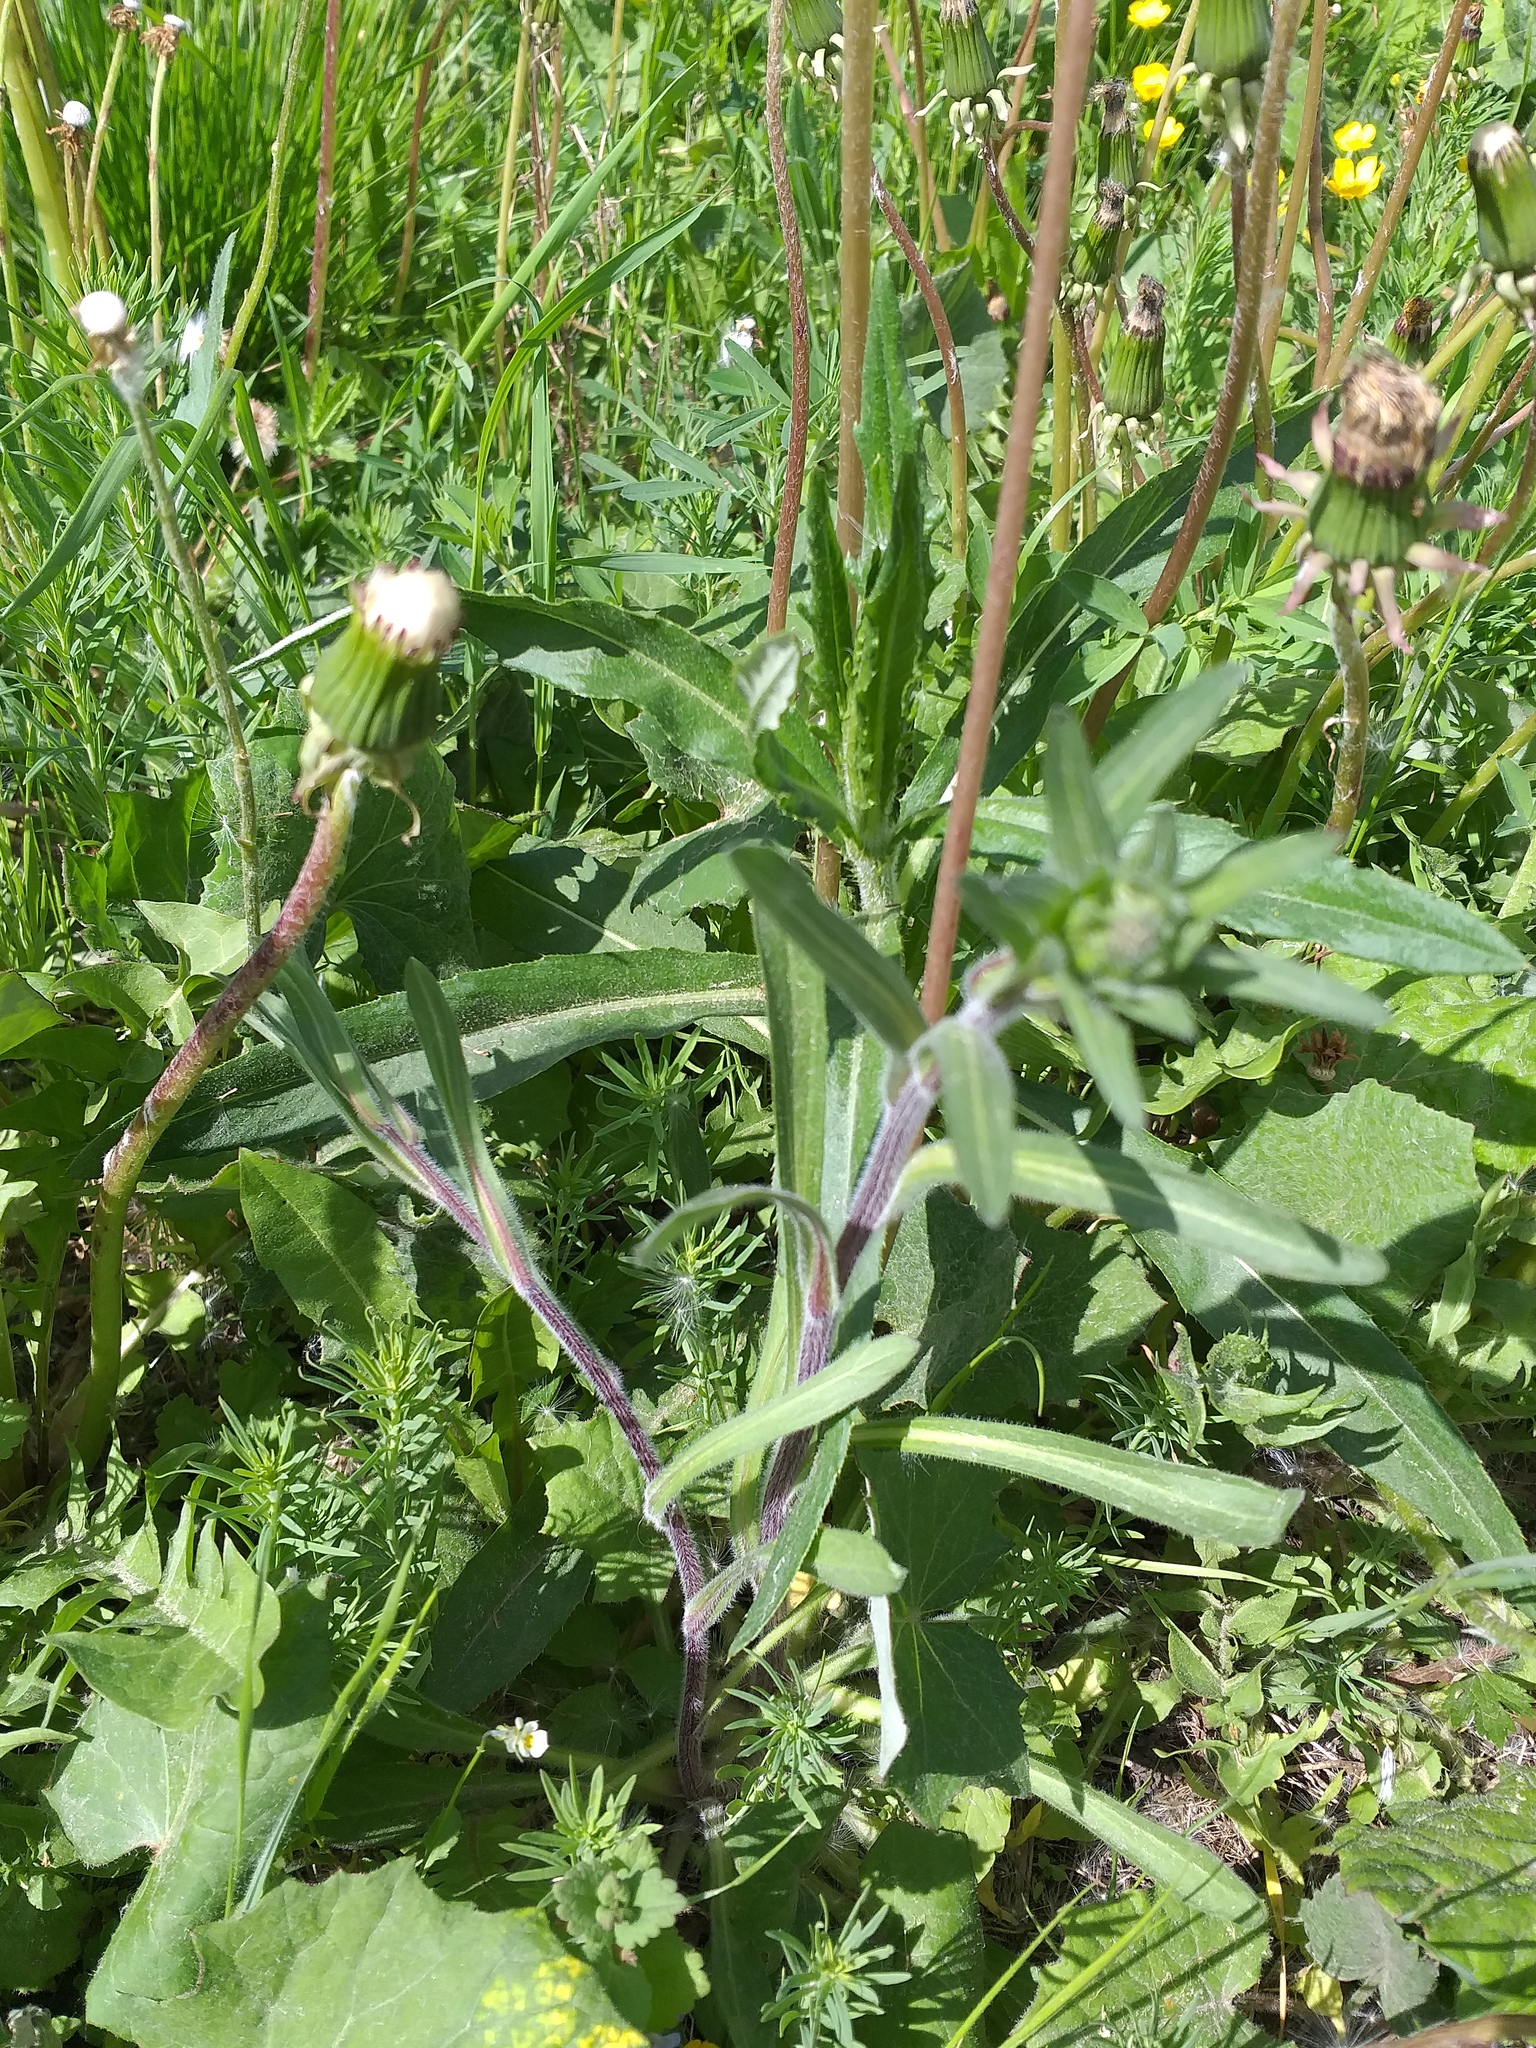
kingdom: Plantae
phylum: Tracheophyta
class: Magnoliopsida
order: Asterales
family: Asteraceae
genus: Erigeron
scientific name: Erigeron acris
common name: Blue fleabane
